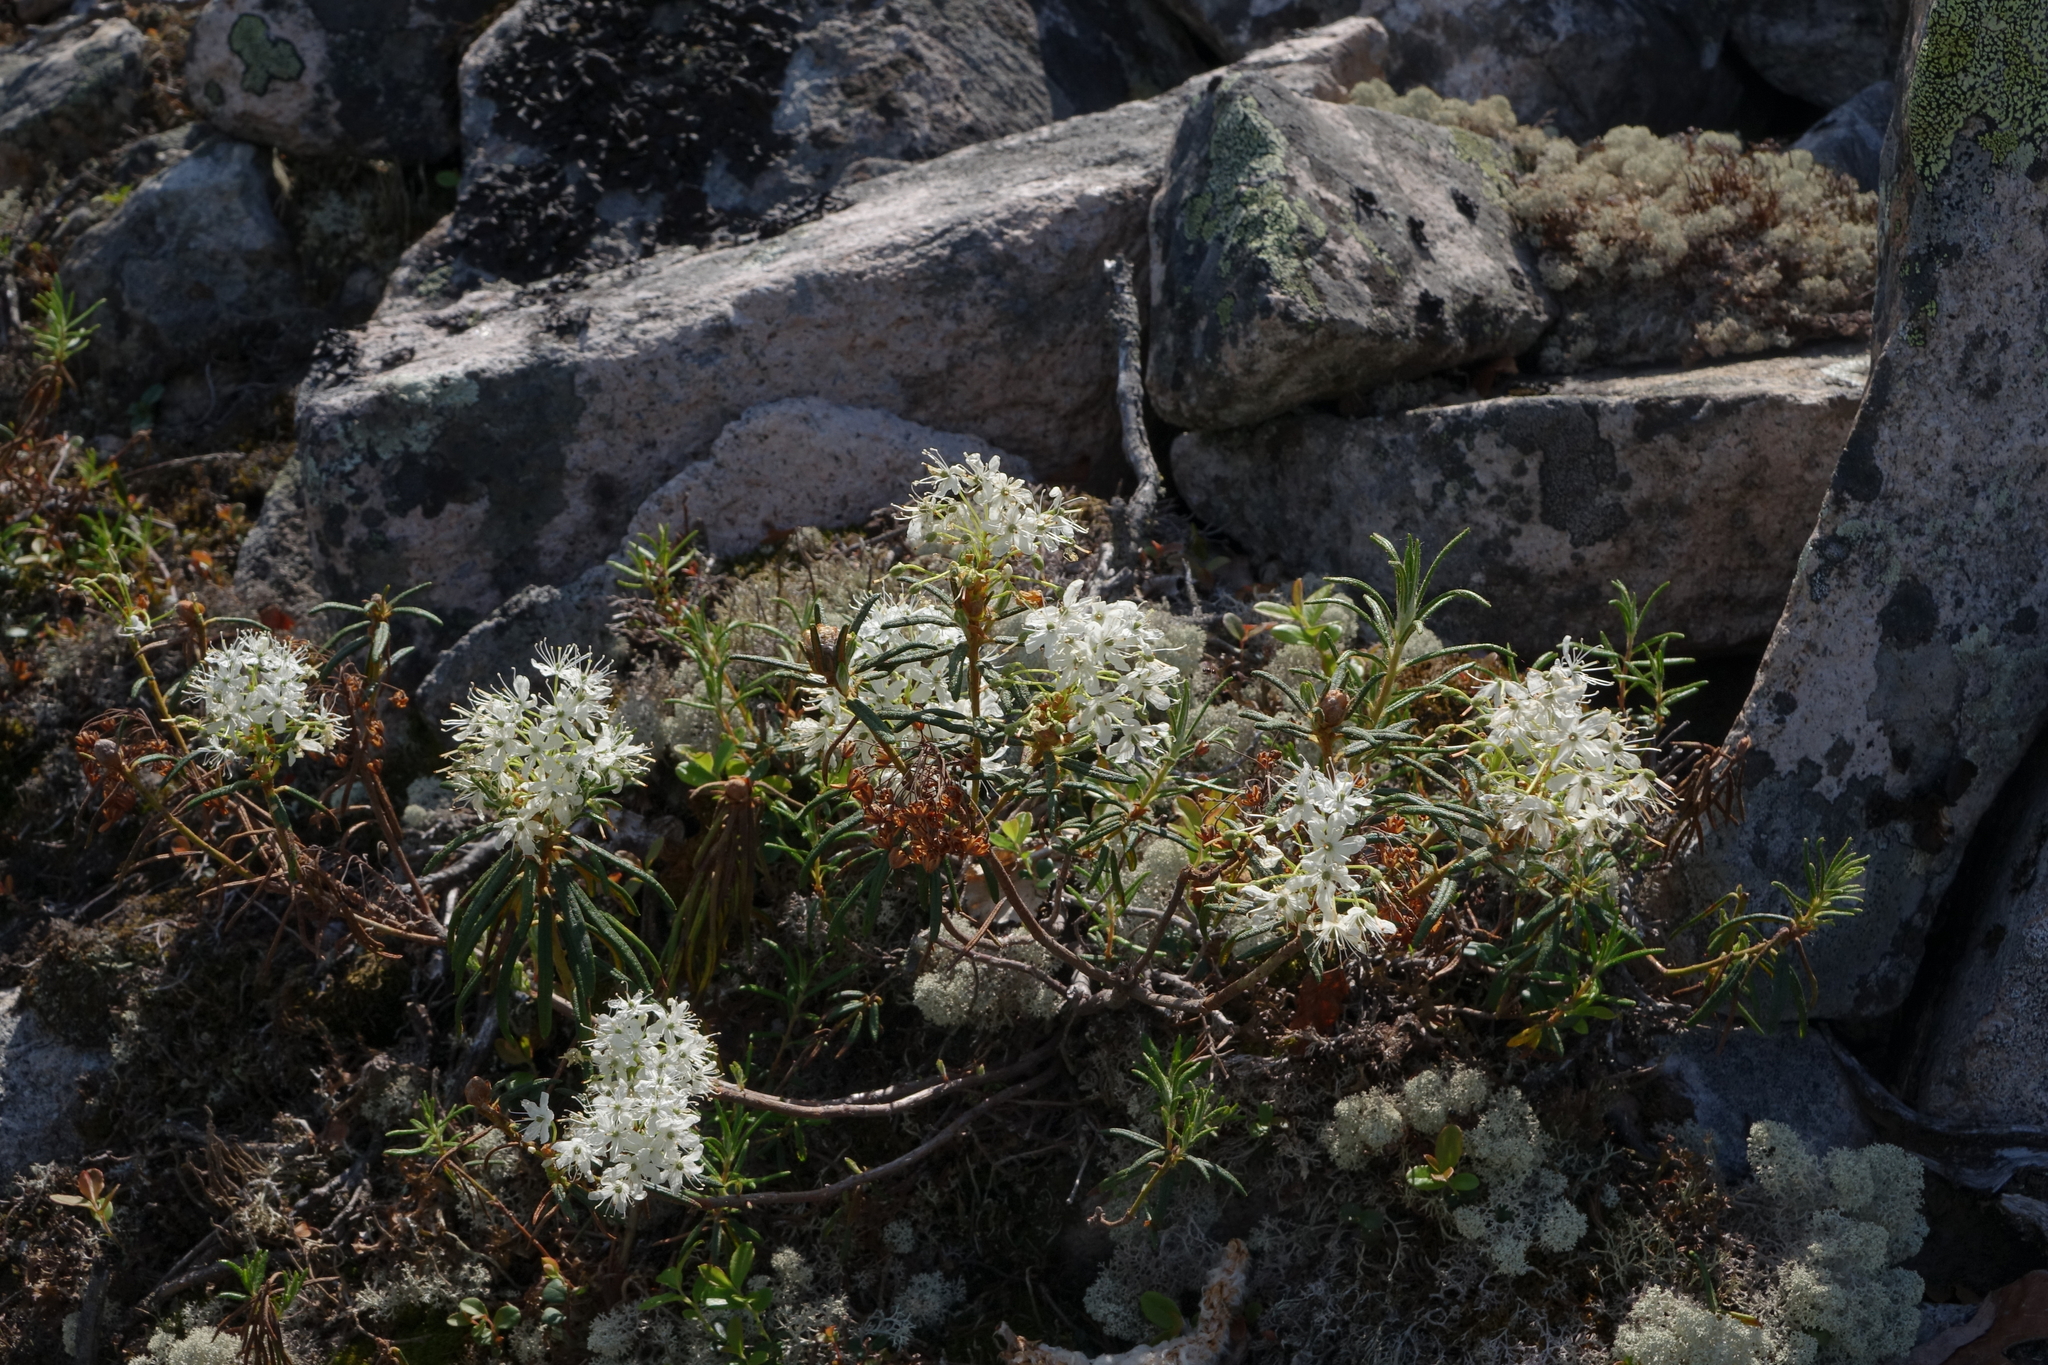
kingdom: Plantae
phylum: Tracheophyta
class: Magnoliopsida
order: Ericales
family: Ericaceae
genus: Rhododendron
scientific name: Rhododendron tomentosum
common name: Marsh labrador tea
